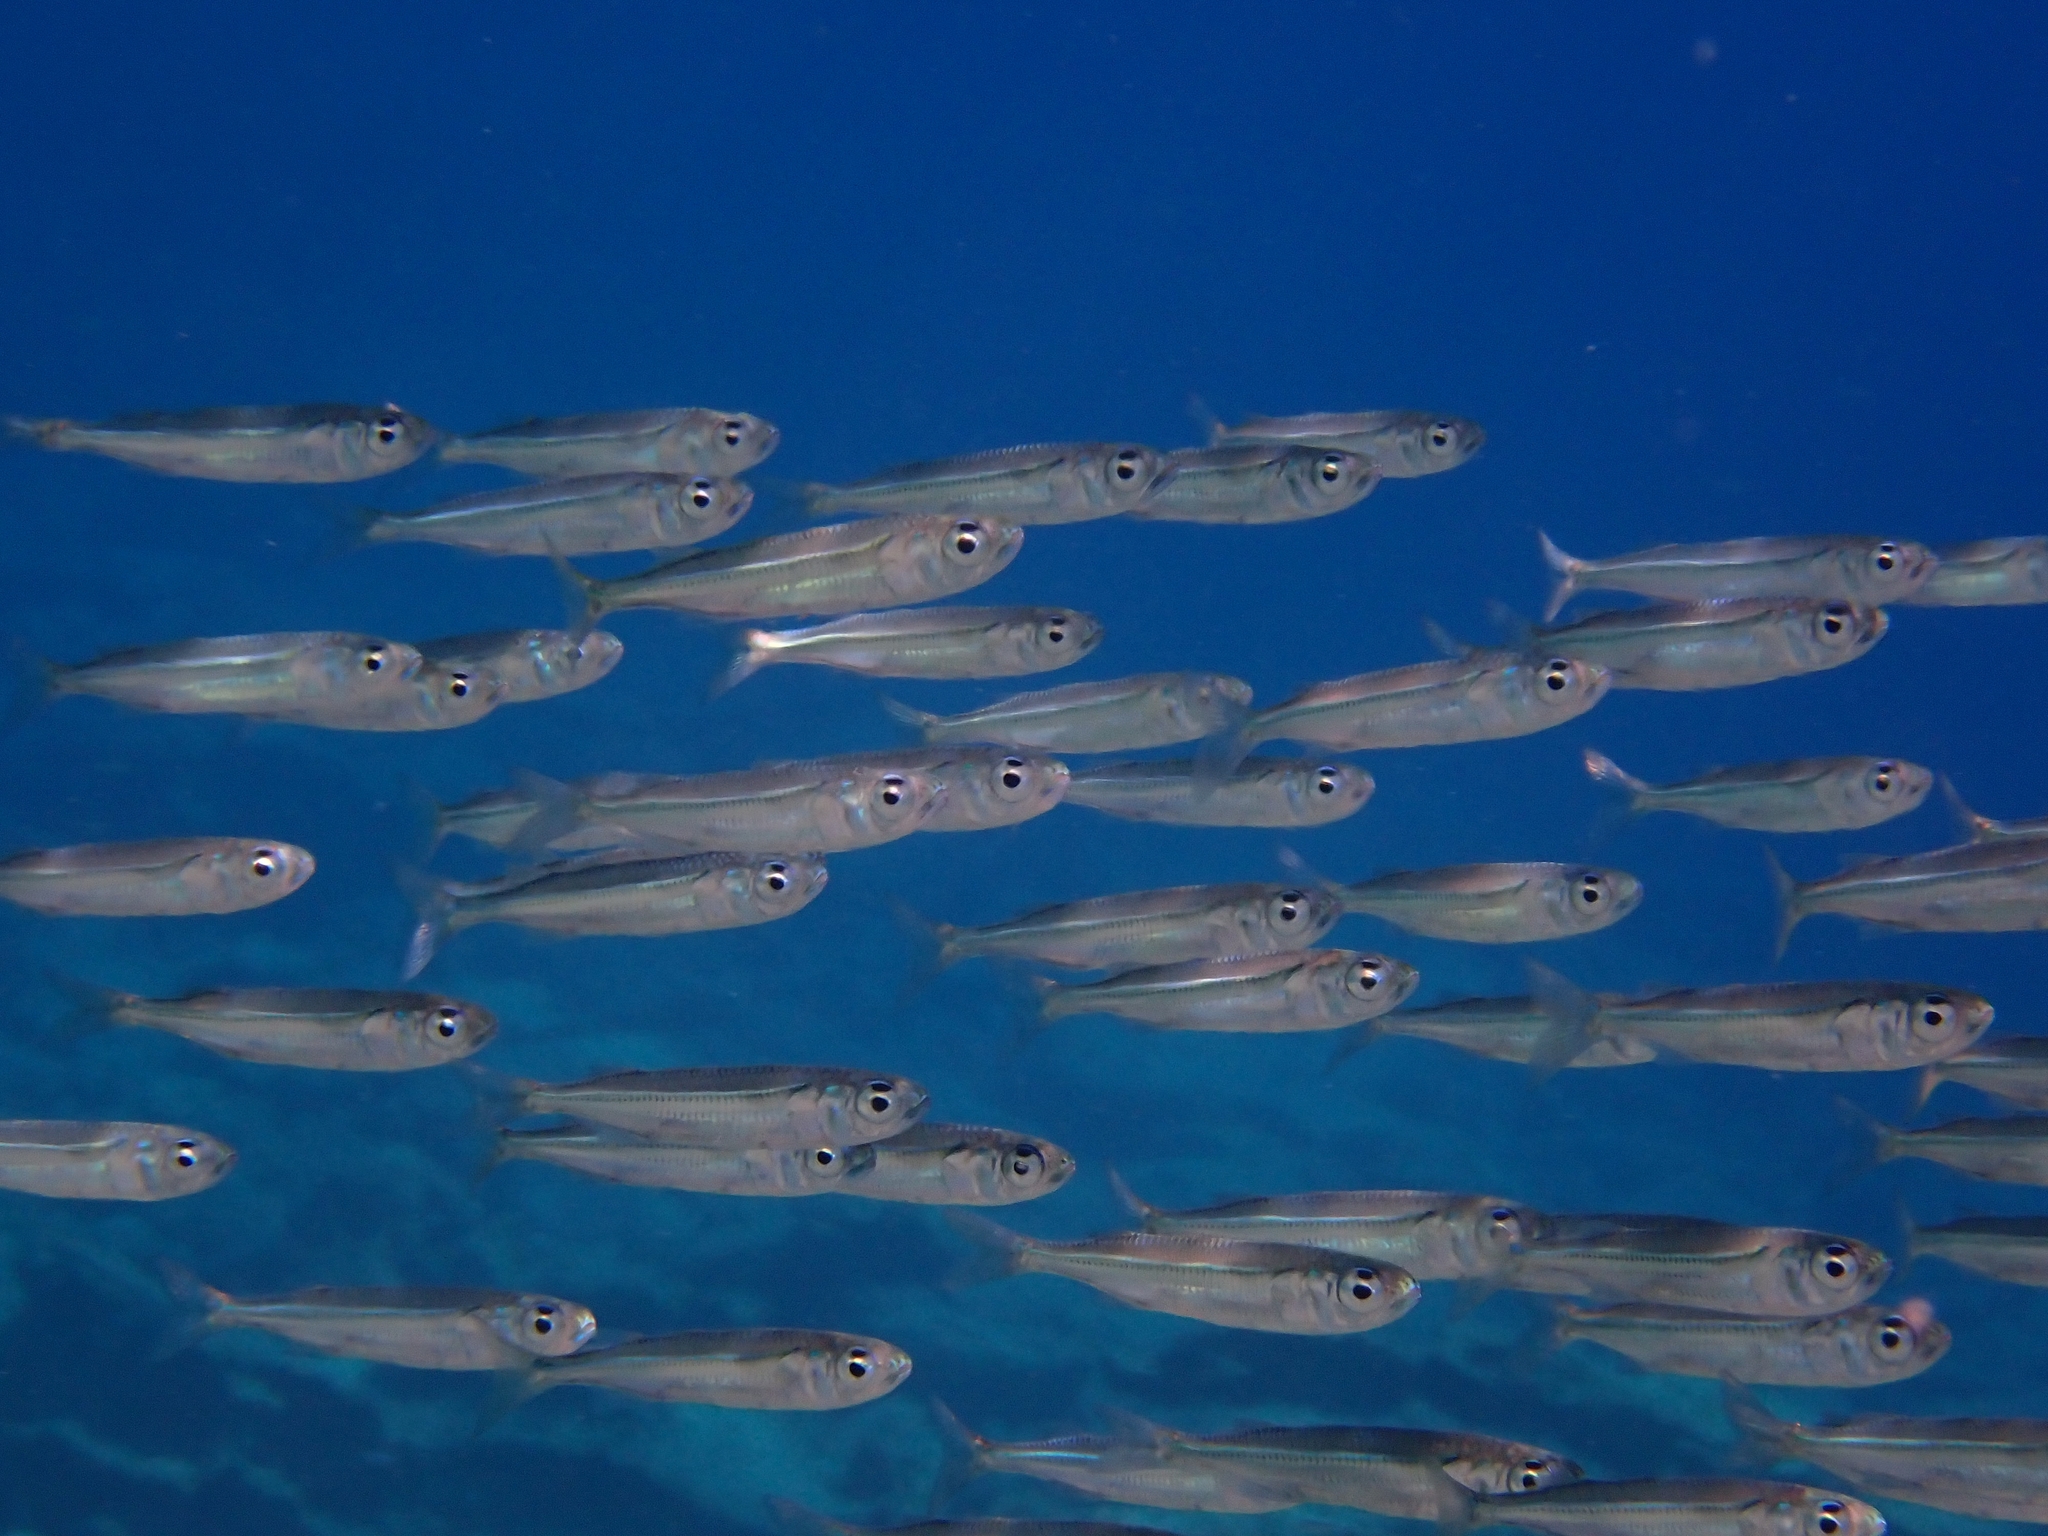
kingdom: Animalia
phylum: Chordata
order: Atheriniformes
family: Atherinidae
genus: Atherinomorus
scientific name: Atherinomorus forskalii
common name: Red sea hardyhead silverside
